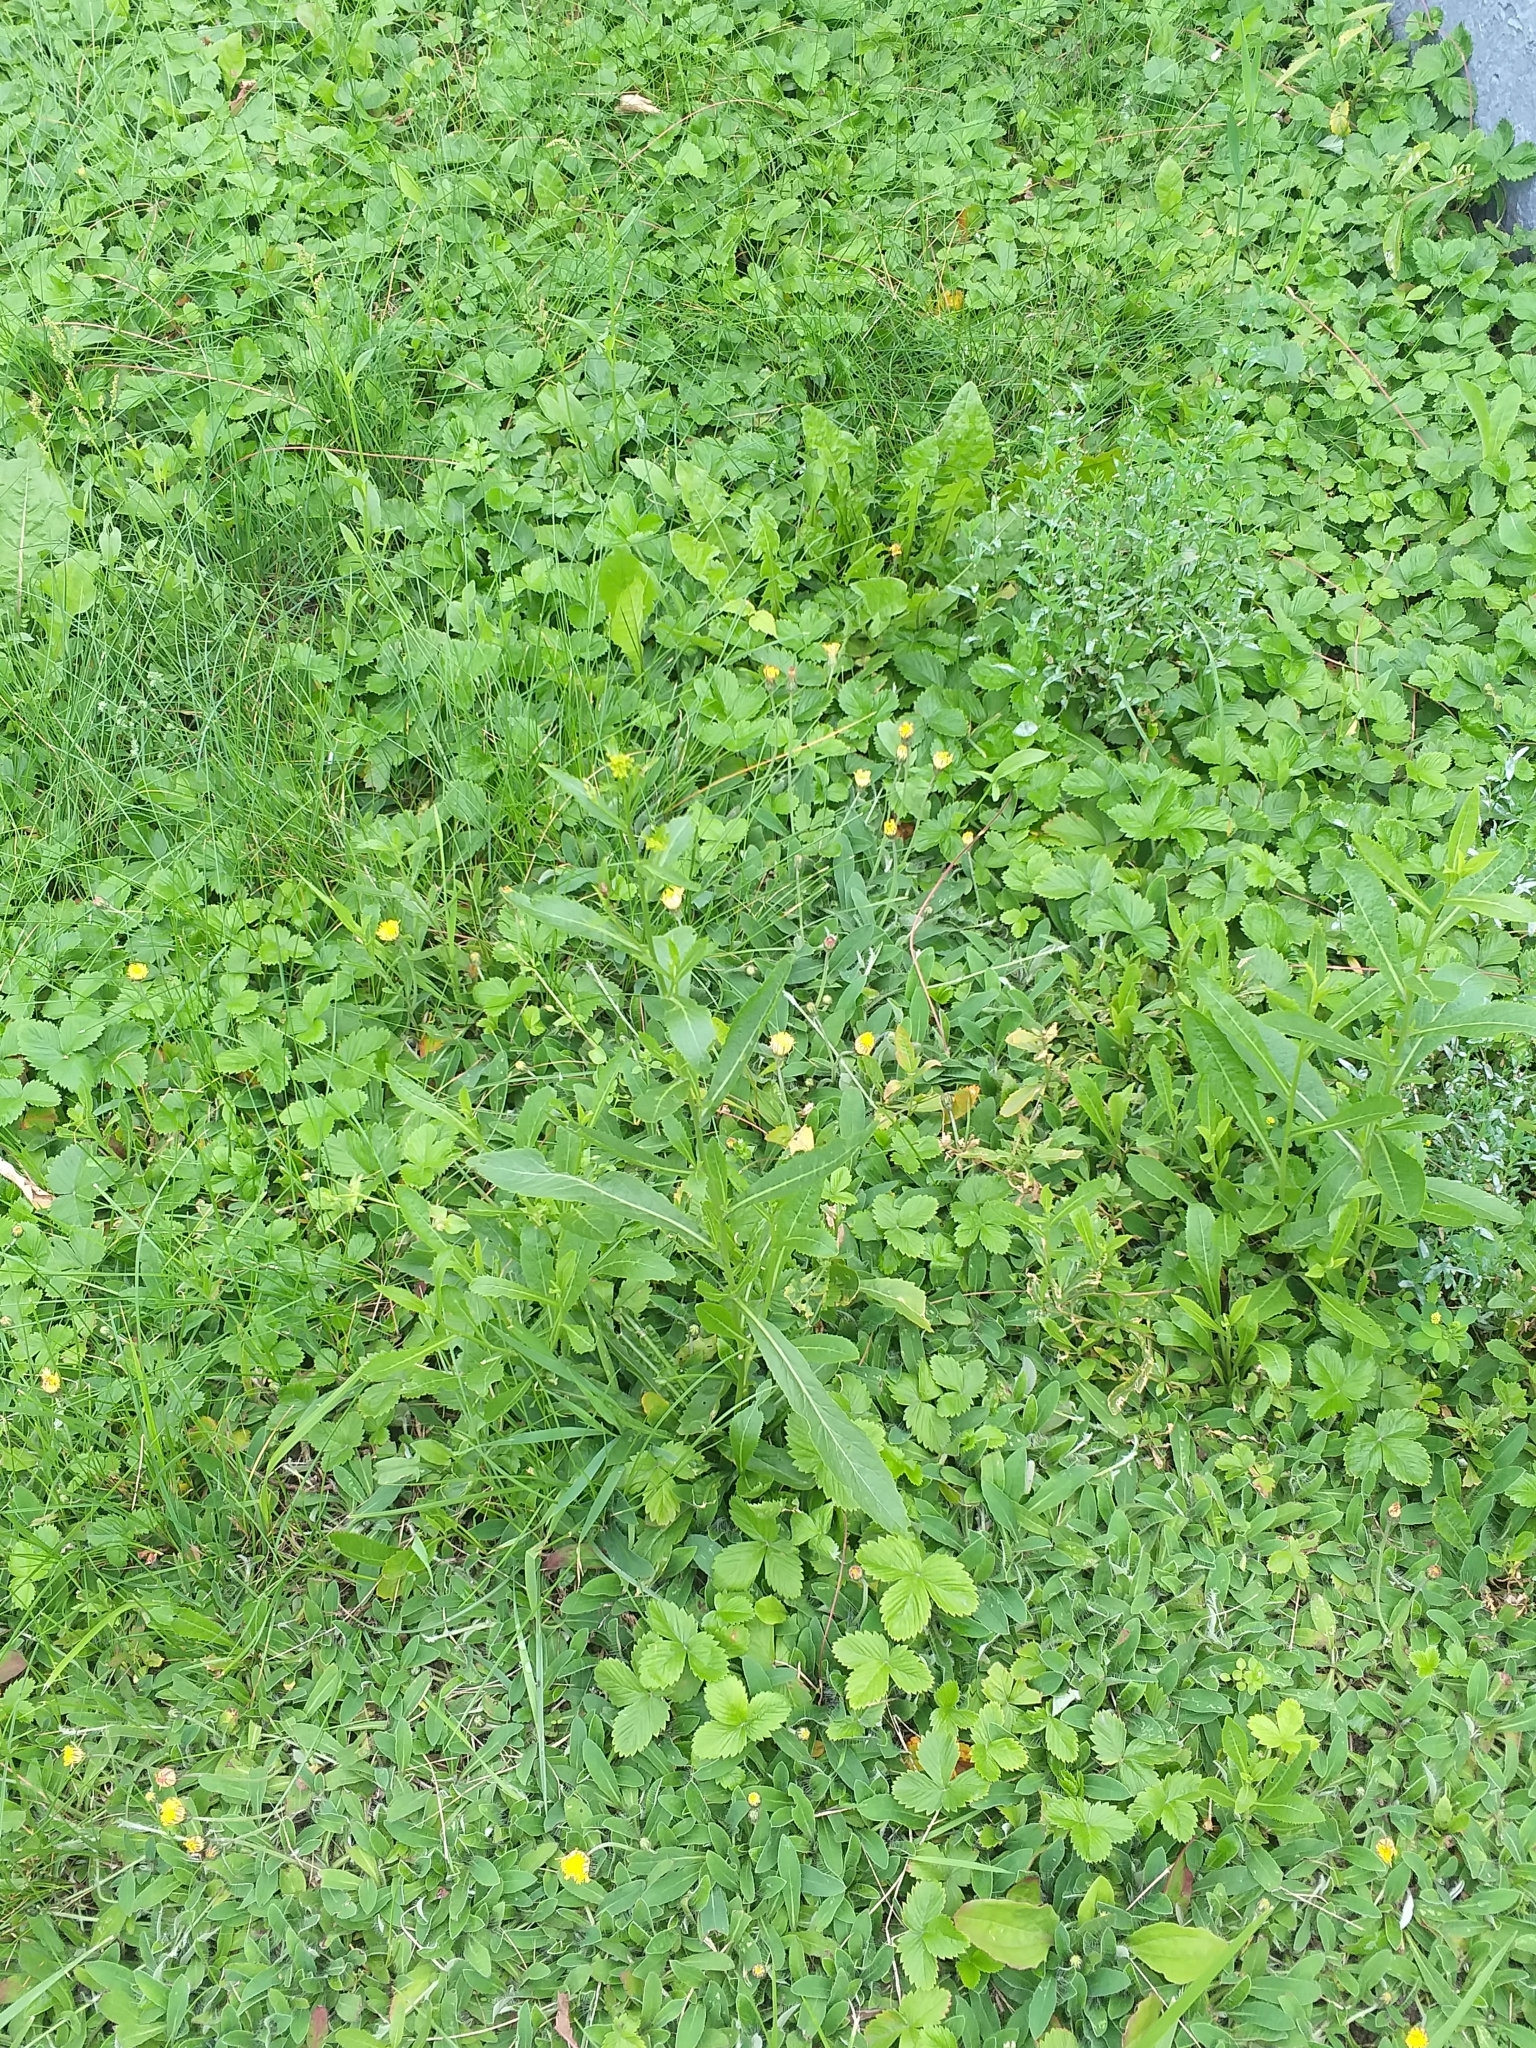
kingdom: Plantae
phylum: Tracheophyta
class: Magnoliopsida
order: Brassicales
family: Brassicaceae
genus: Rorippa
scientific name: Rorippa austriaca
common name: Austrian yellow-cress
